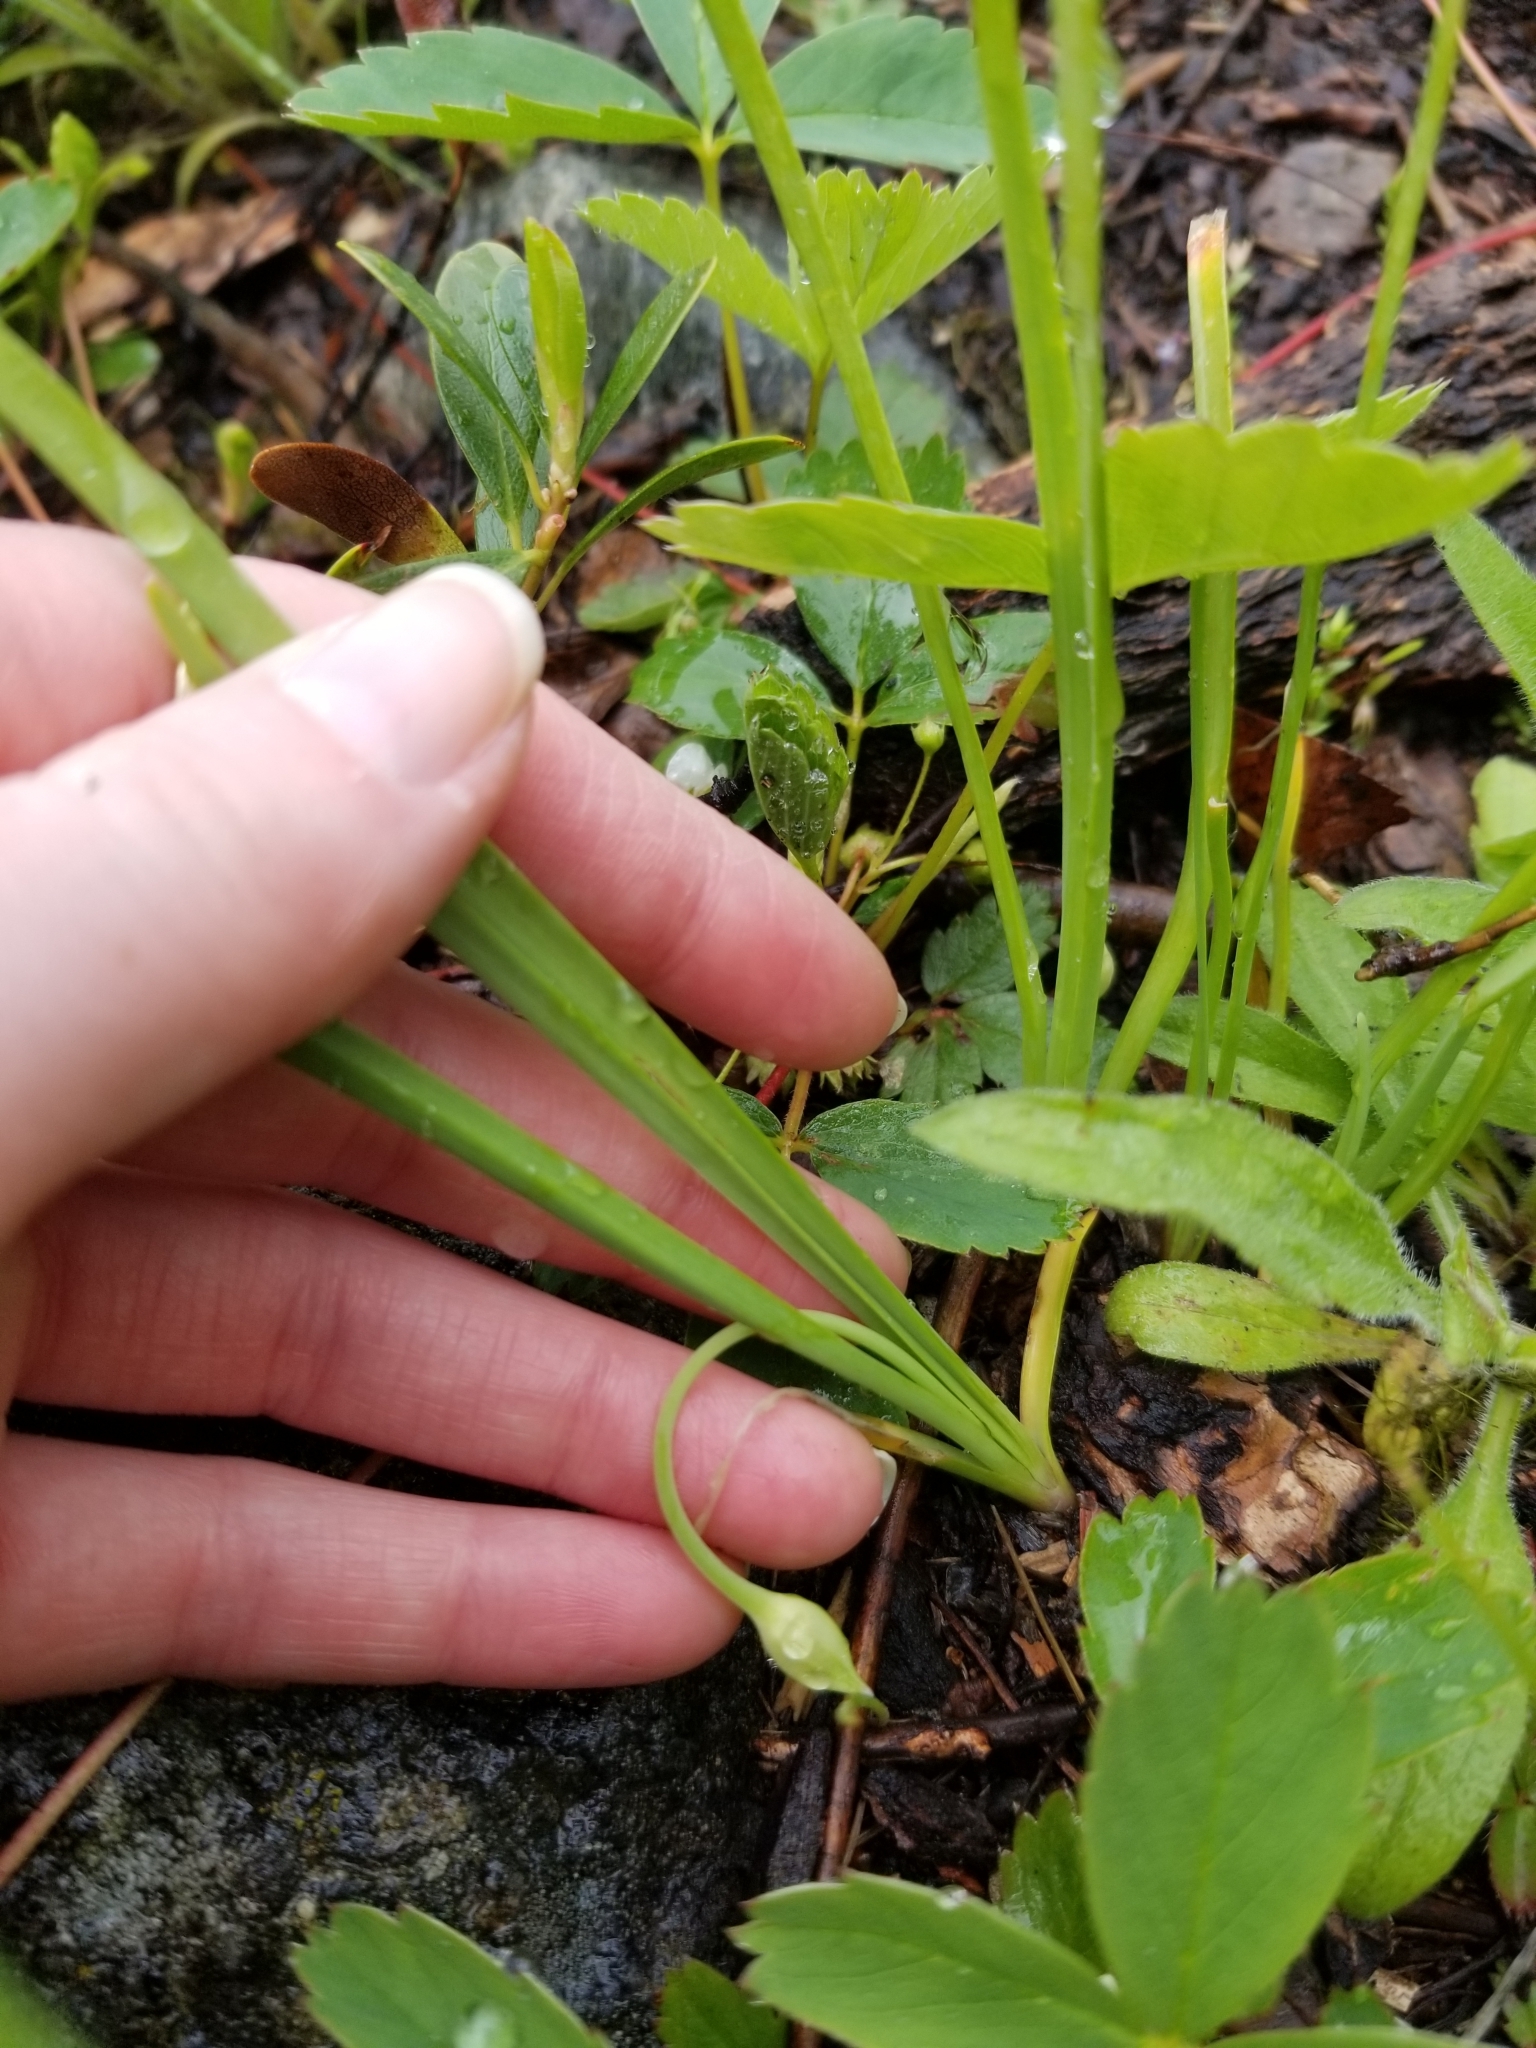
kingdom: Plantae
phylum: Tracheophyta
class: Liliopsida
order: Asparagales
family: Amaryllidaceae
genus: Allium
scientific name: Allium cernuum
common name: Nodding onion
